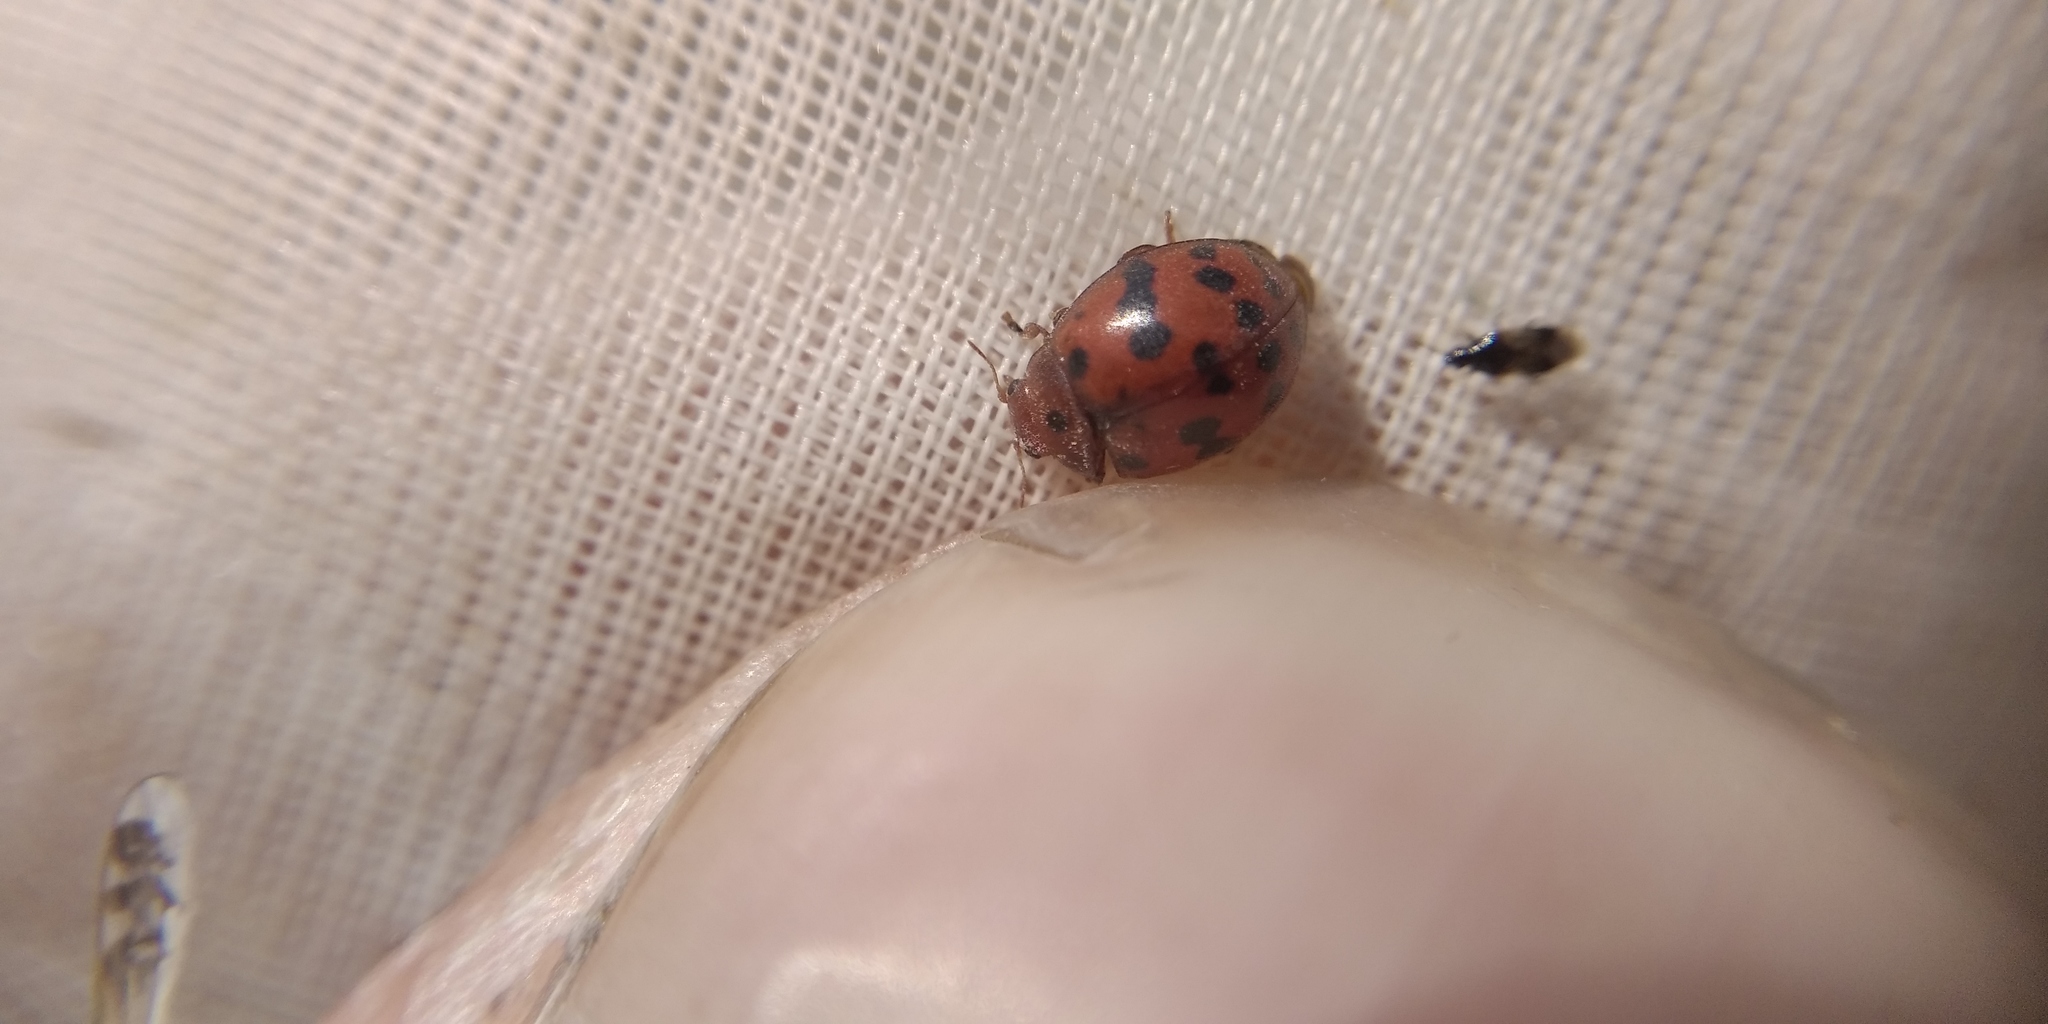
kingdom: Animalia
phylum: Arthropoda
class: Insecta
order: Coleoptera
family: Coccinellidae
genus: Subcoccinella
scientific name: Subcoccinella vigintiquatuorpunctata
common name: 24-spot ladybird
